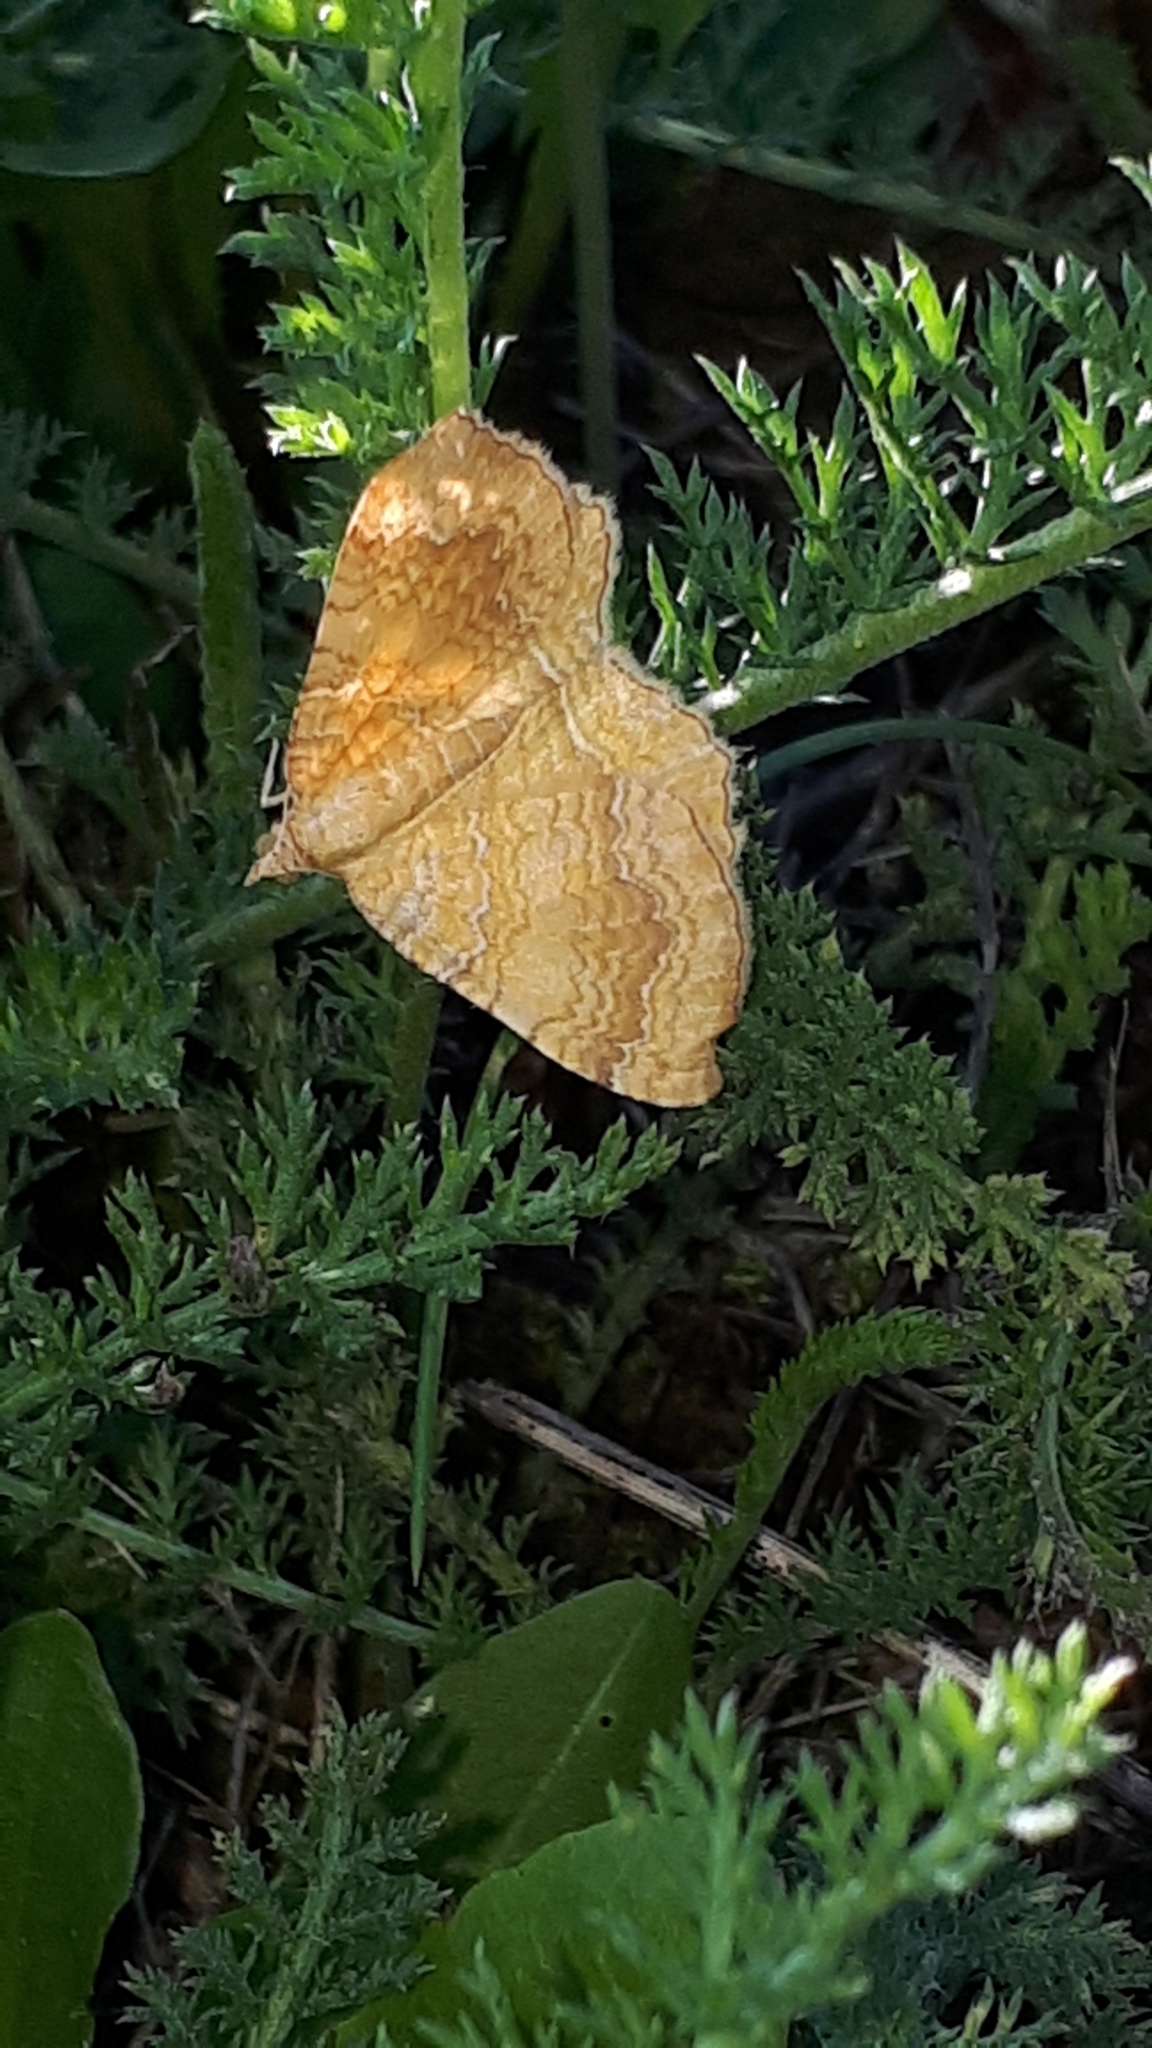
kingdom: Animalia
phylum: Arthropoda
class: Insecta
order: Lepidoptera
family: Geometridae
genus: Camptogramma
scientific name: Camptogramma bilineata
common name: Yellow shell
